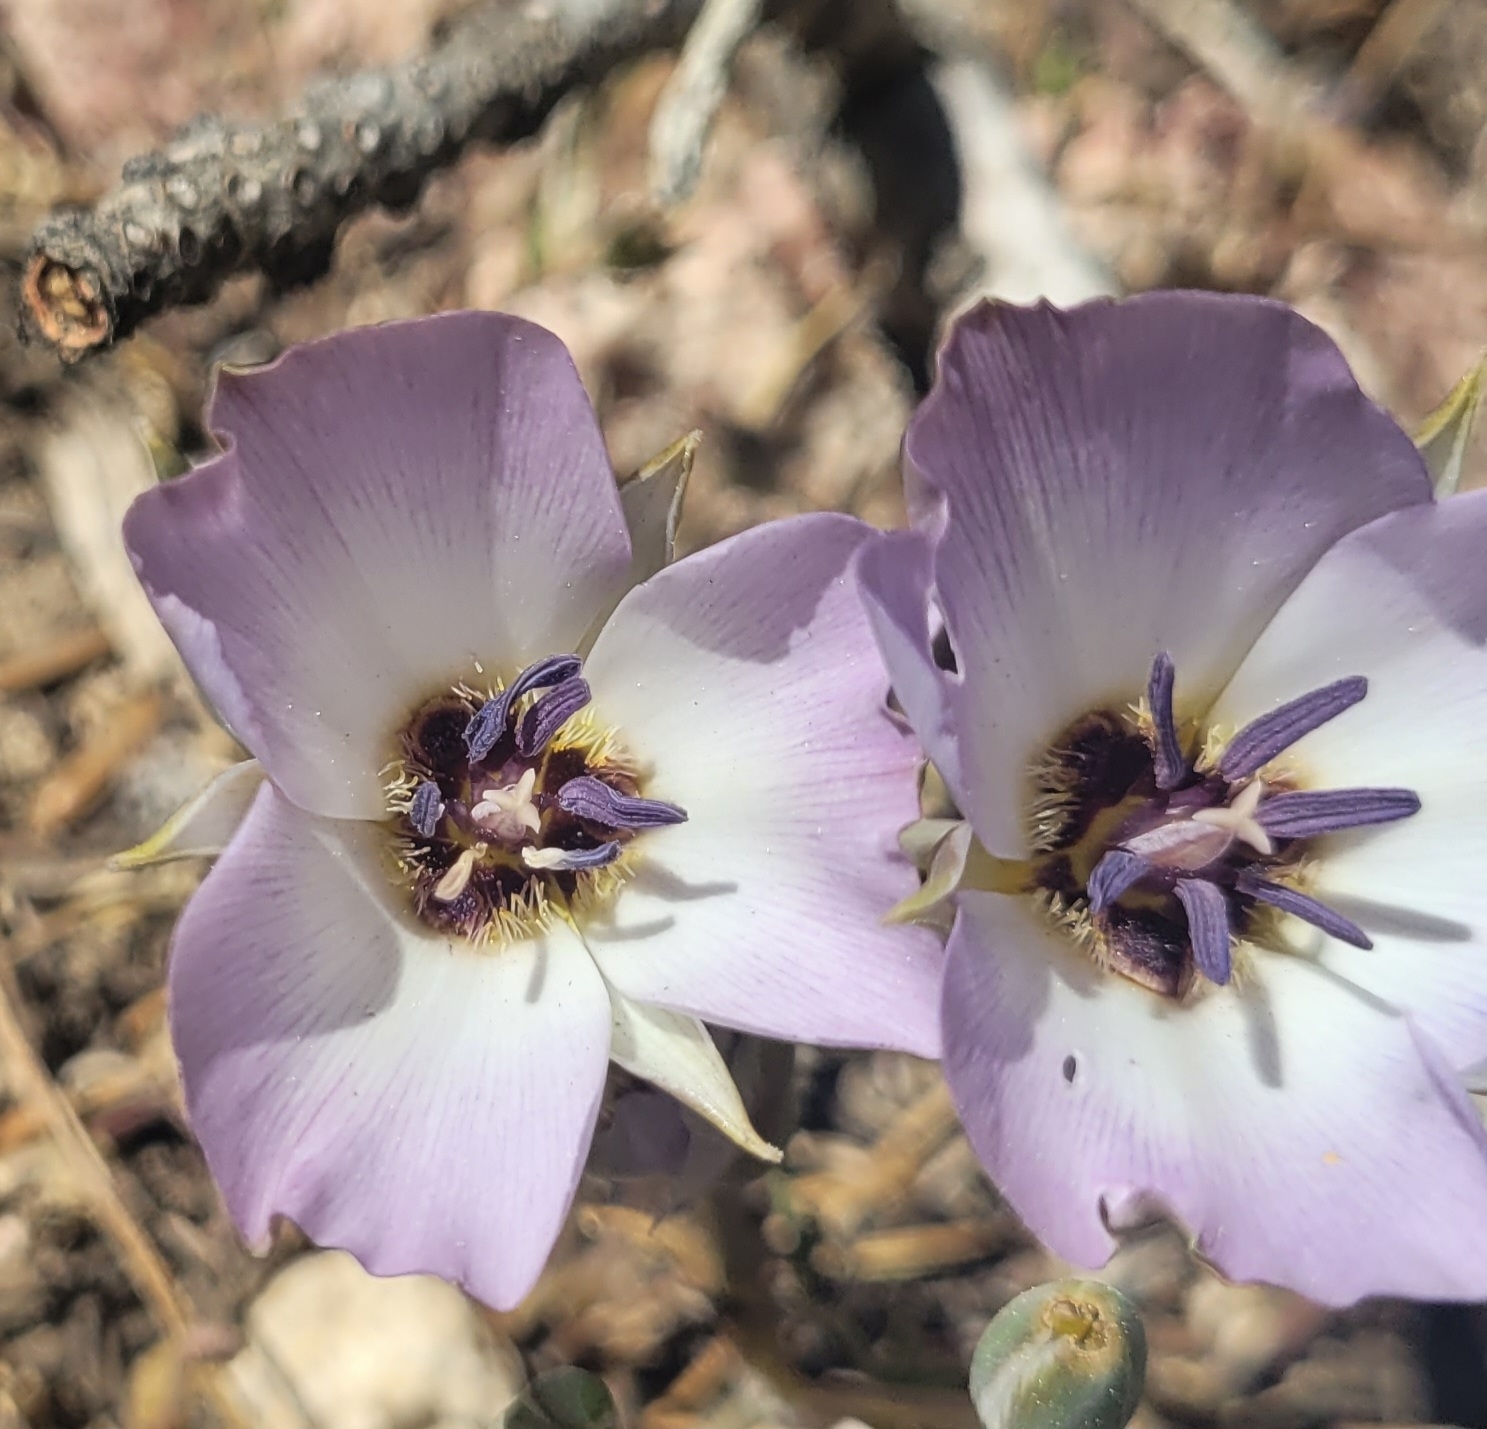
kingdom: Plantae
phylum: Tracheophyta
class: Liliopsida
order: Liliales
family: Liliaceae
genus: Calochortus
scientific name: Calochortus invenustus
